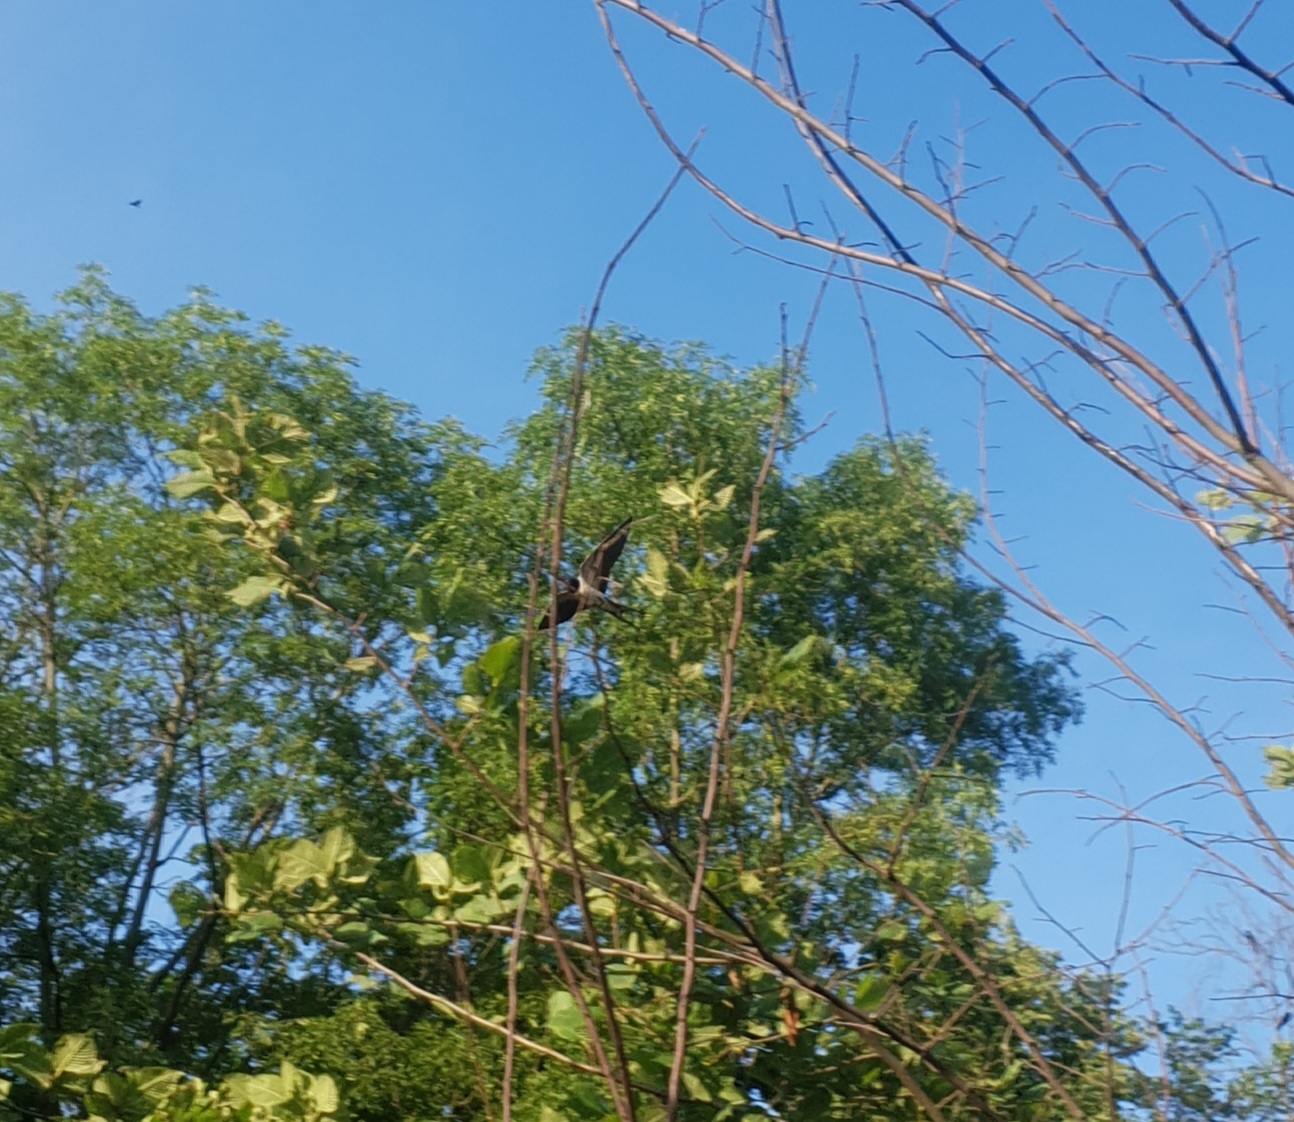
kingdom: Animalia
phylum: Chordata
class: Aves
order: Passeriformes
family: Hirundinidae
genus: Hirundo
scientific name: Hirundo rustica
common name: Barn swallow
